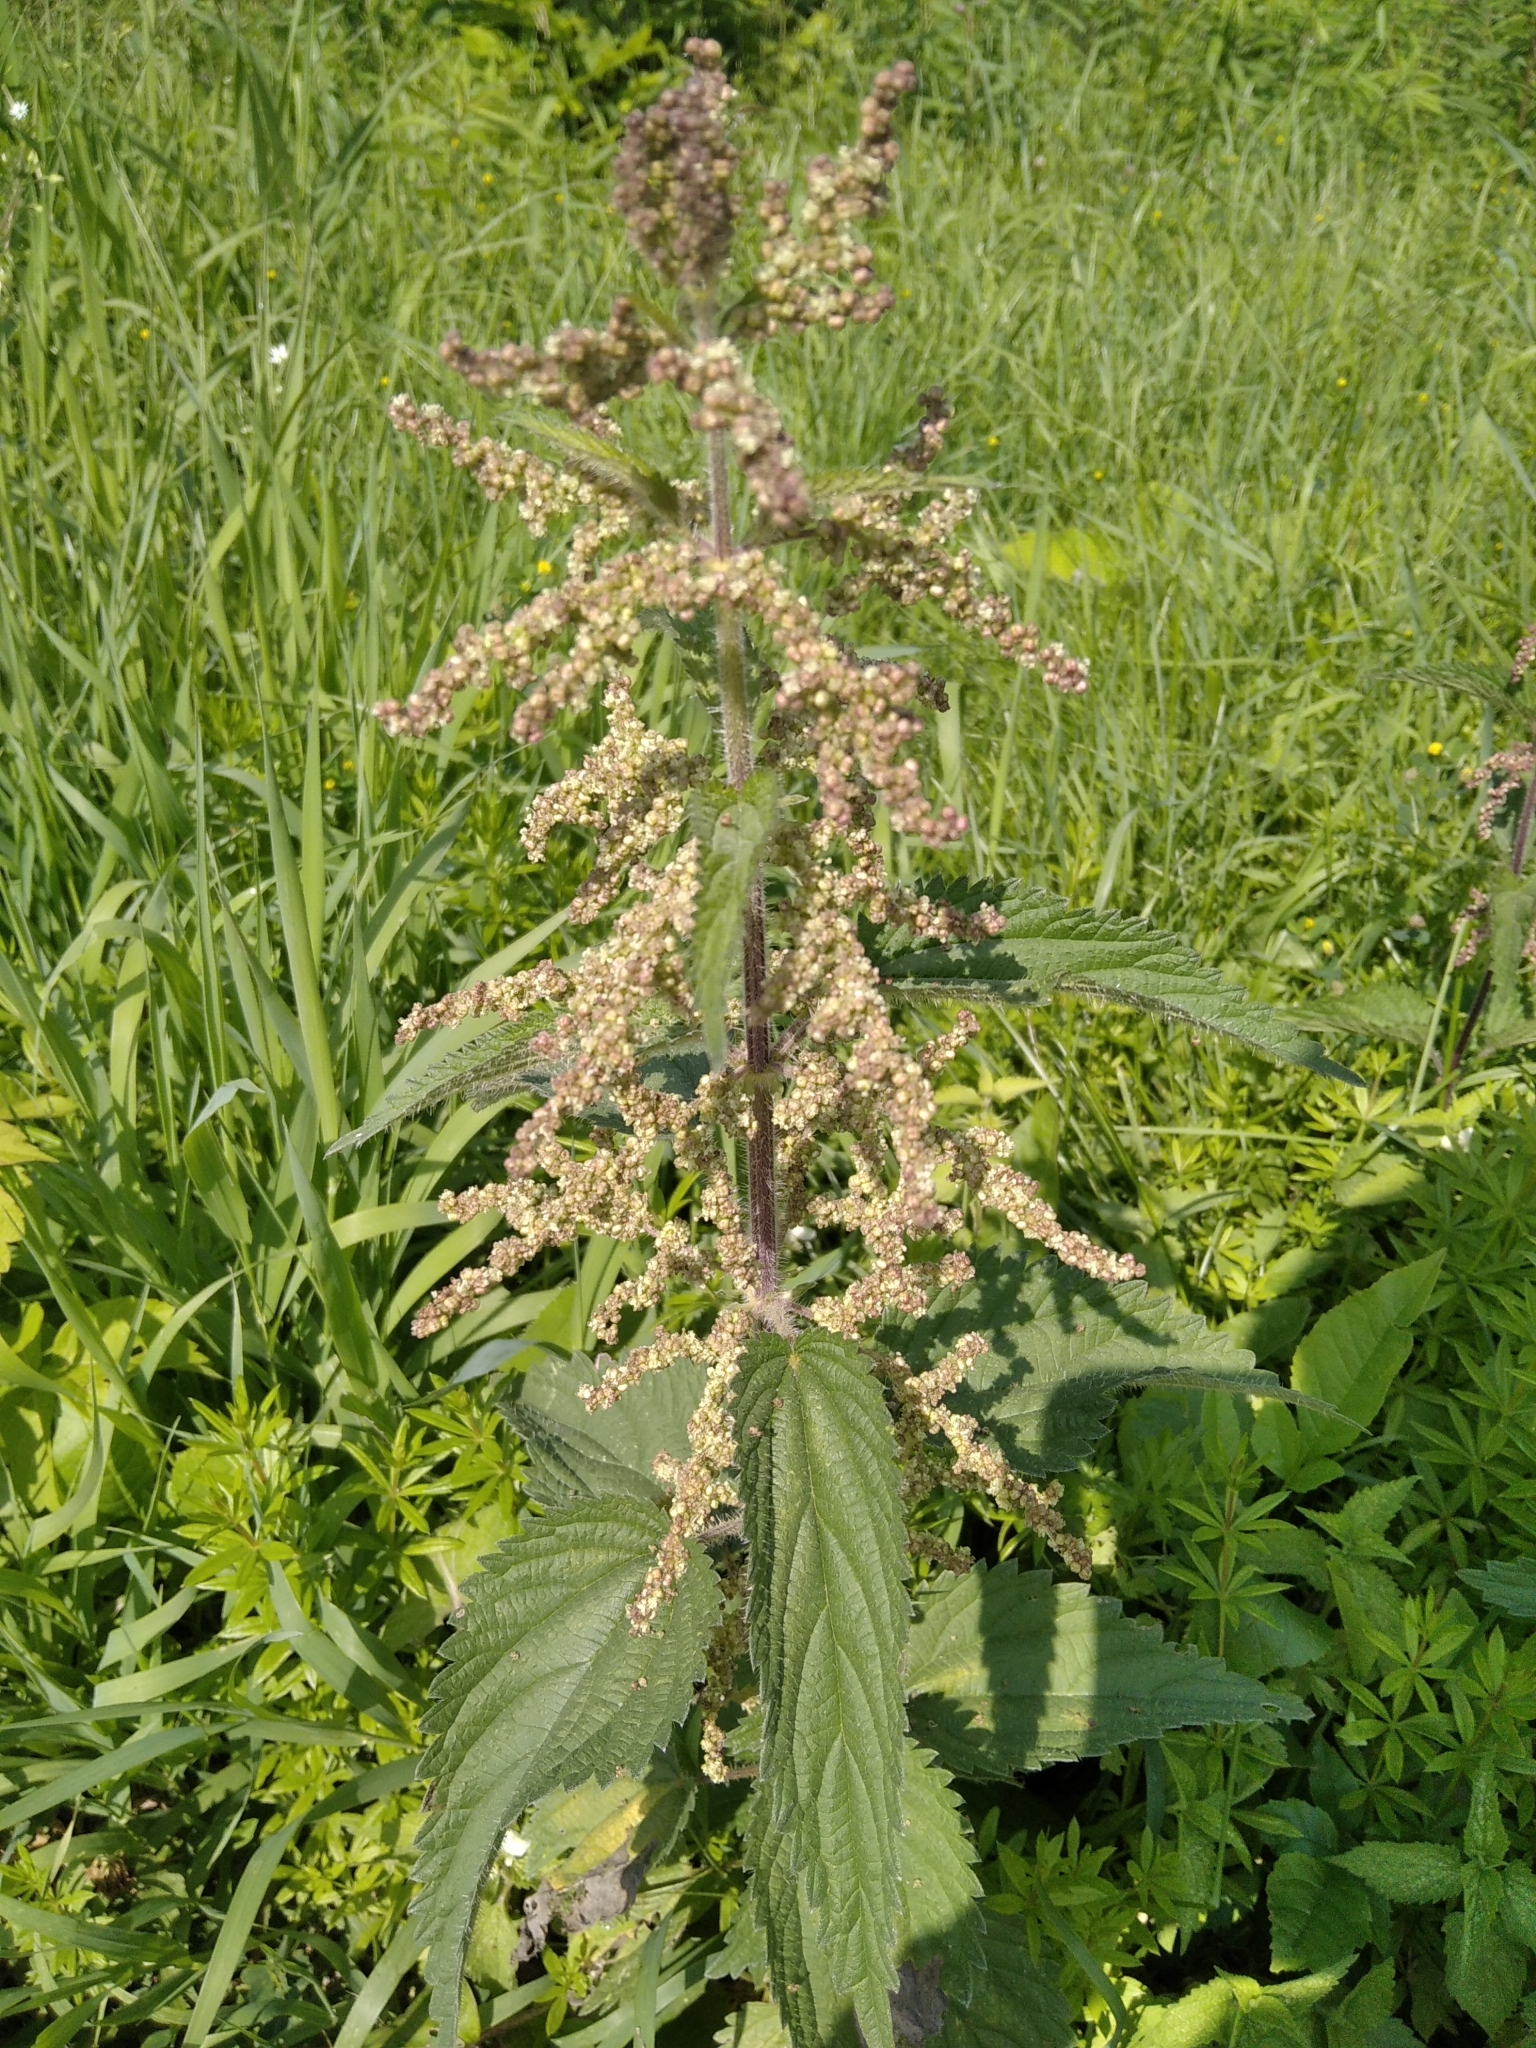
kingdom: Plantae
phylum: Tracheophyta
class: Magnoliopsida
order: Rosales
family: Urticaceae
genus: Urtica
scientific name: Urtica dioica
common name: Common nettle
